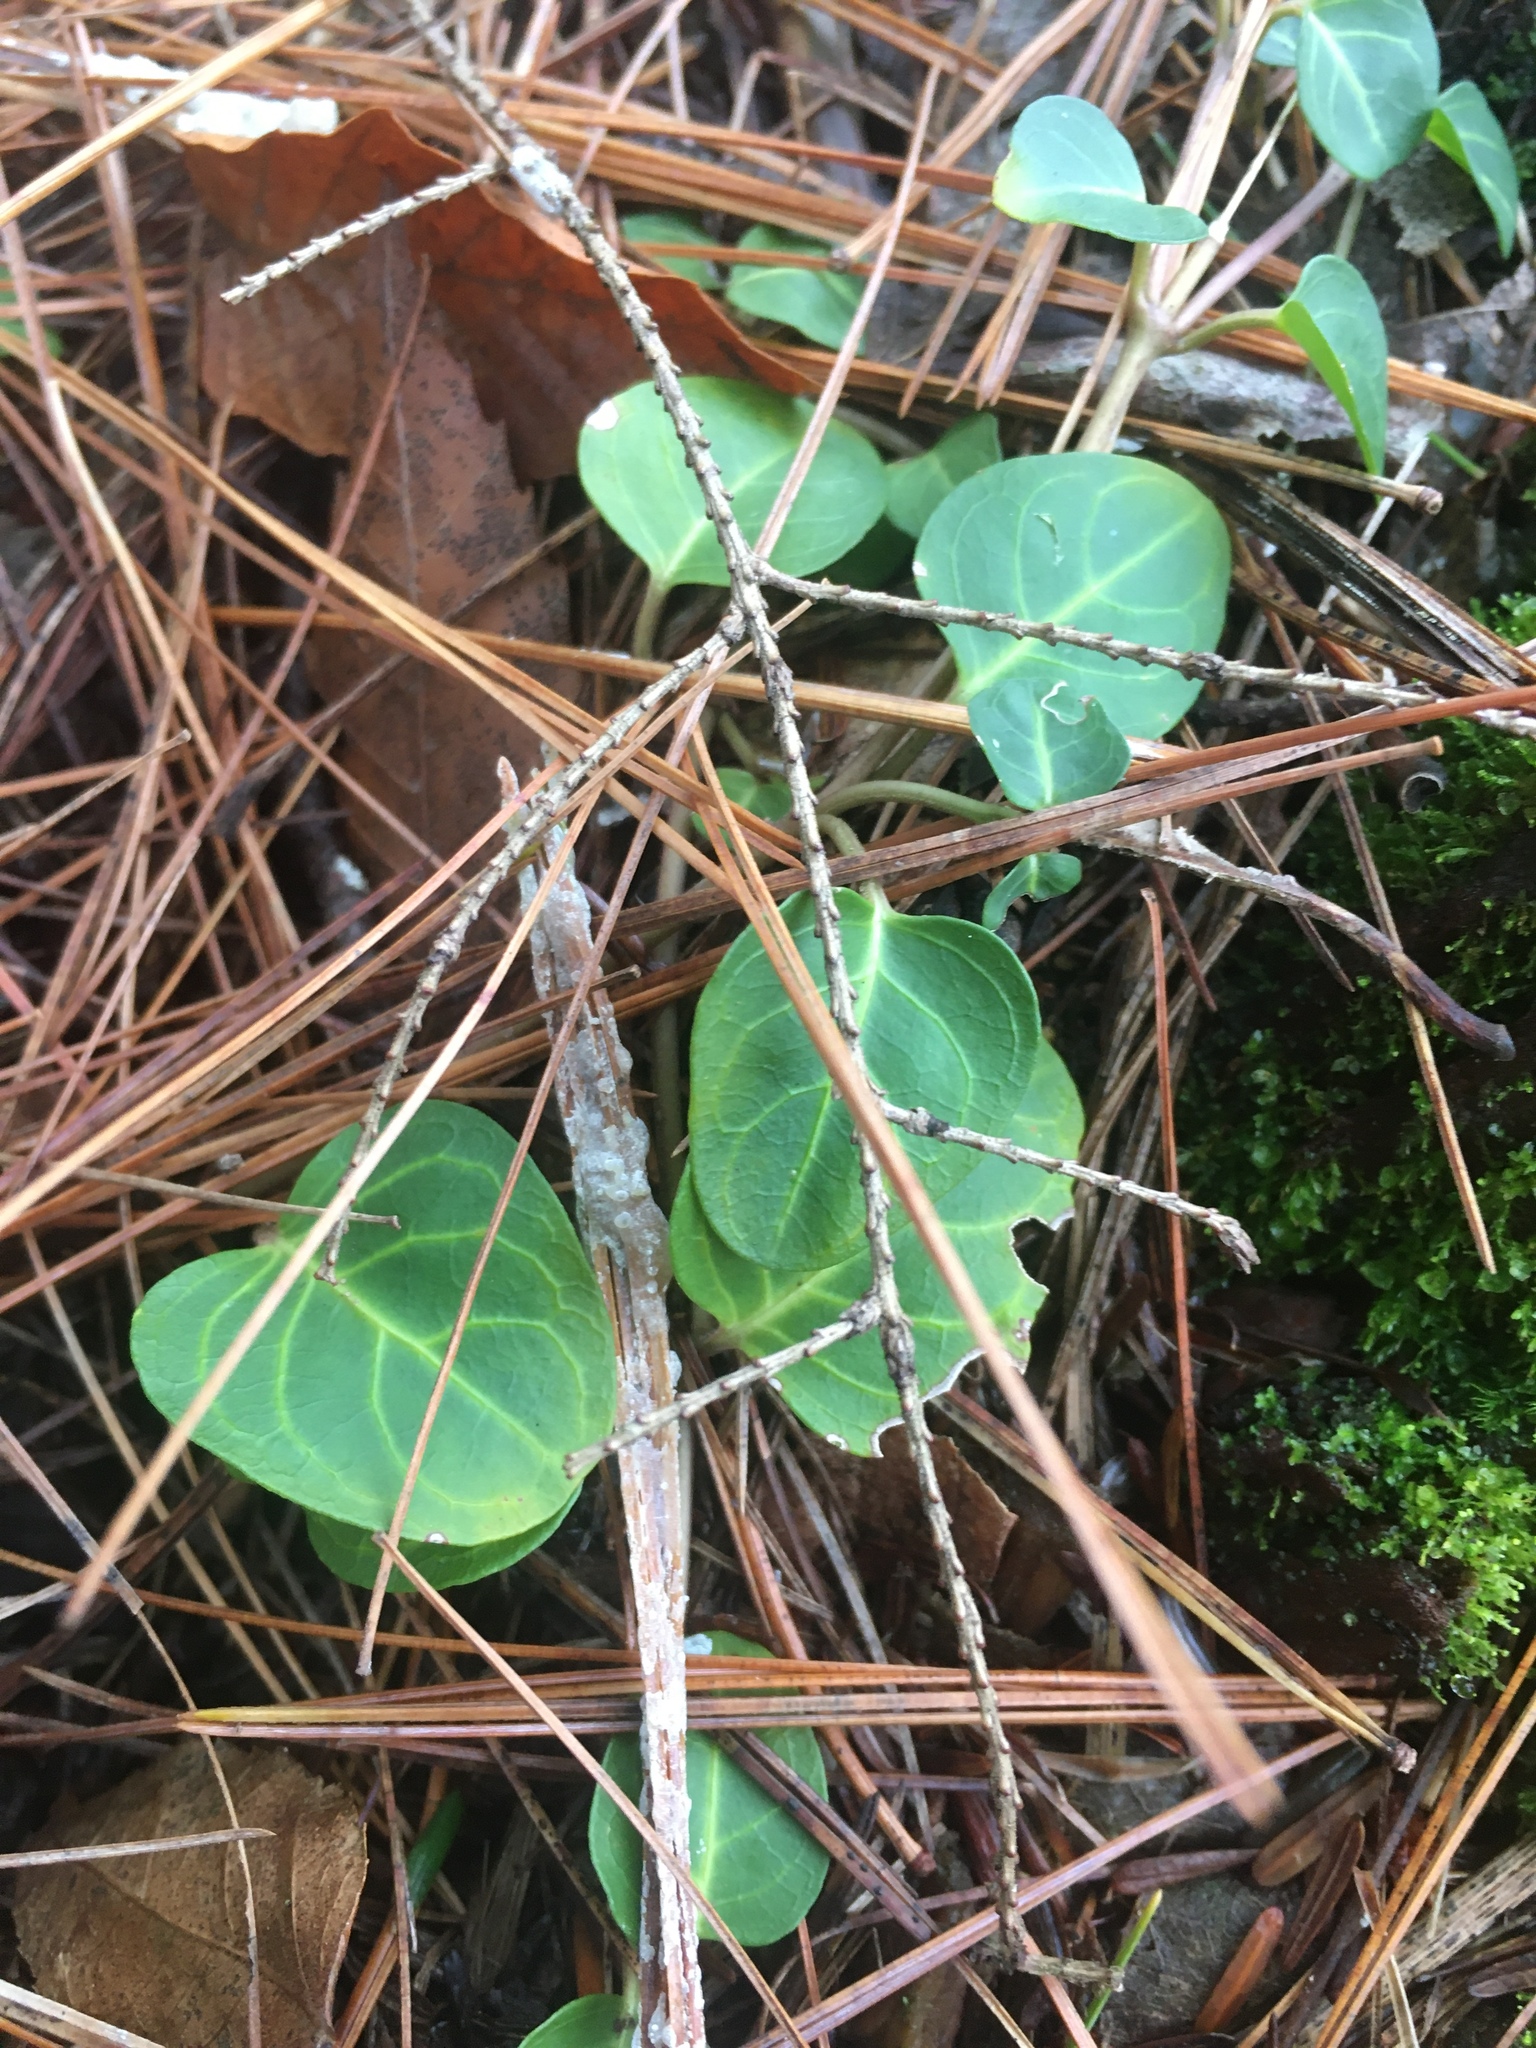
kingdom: Plantae
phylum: Tracheophyta
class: Magnoliopsida
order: Gentianales
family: Rubiaceae
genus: Mitchella
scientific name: Mitchella repens
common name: Partridge-berry
